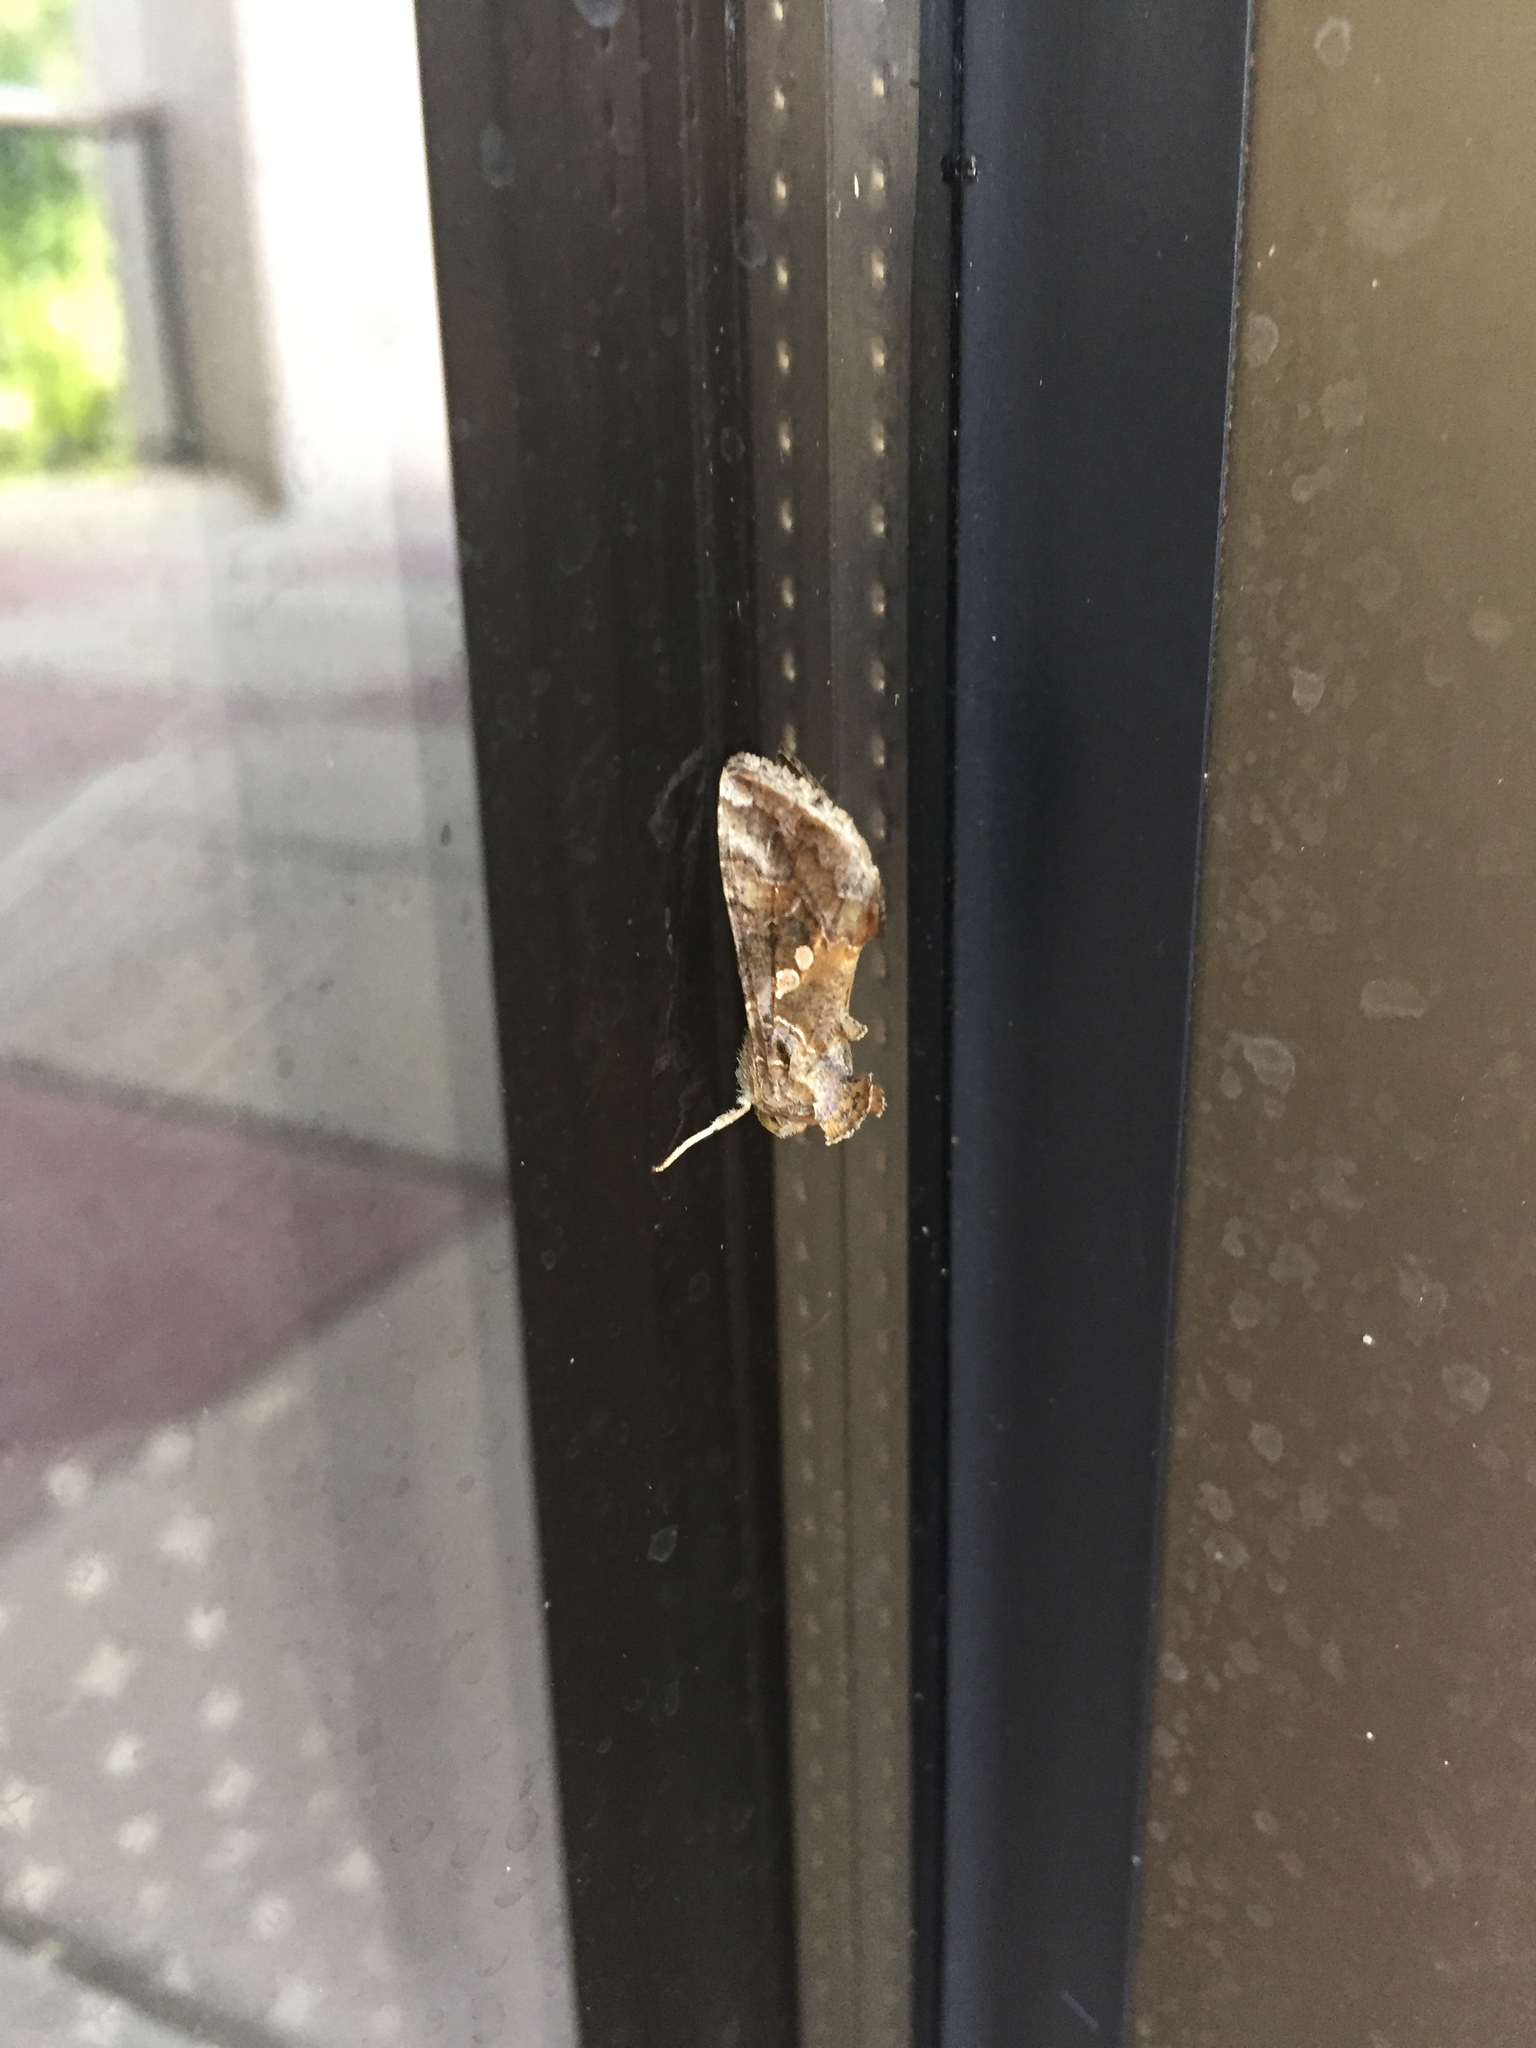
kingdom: Animalia
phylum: Arthropoda
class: Insecta
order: Lepidoptera
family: Noctuidae
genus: Chrysodeixis
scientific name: Chrysodeixis includens
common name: Cutworm moth
